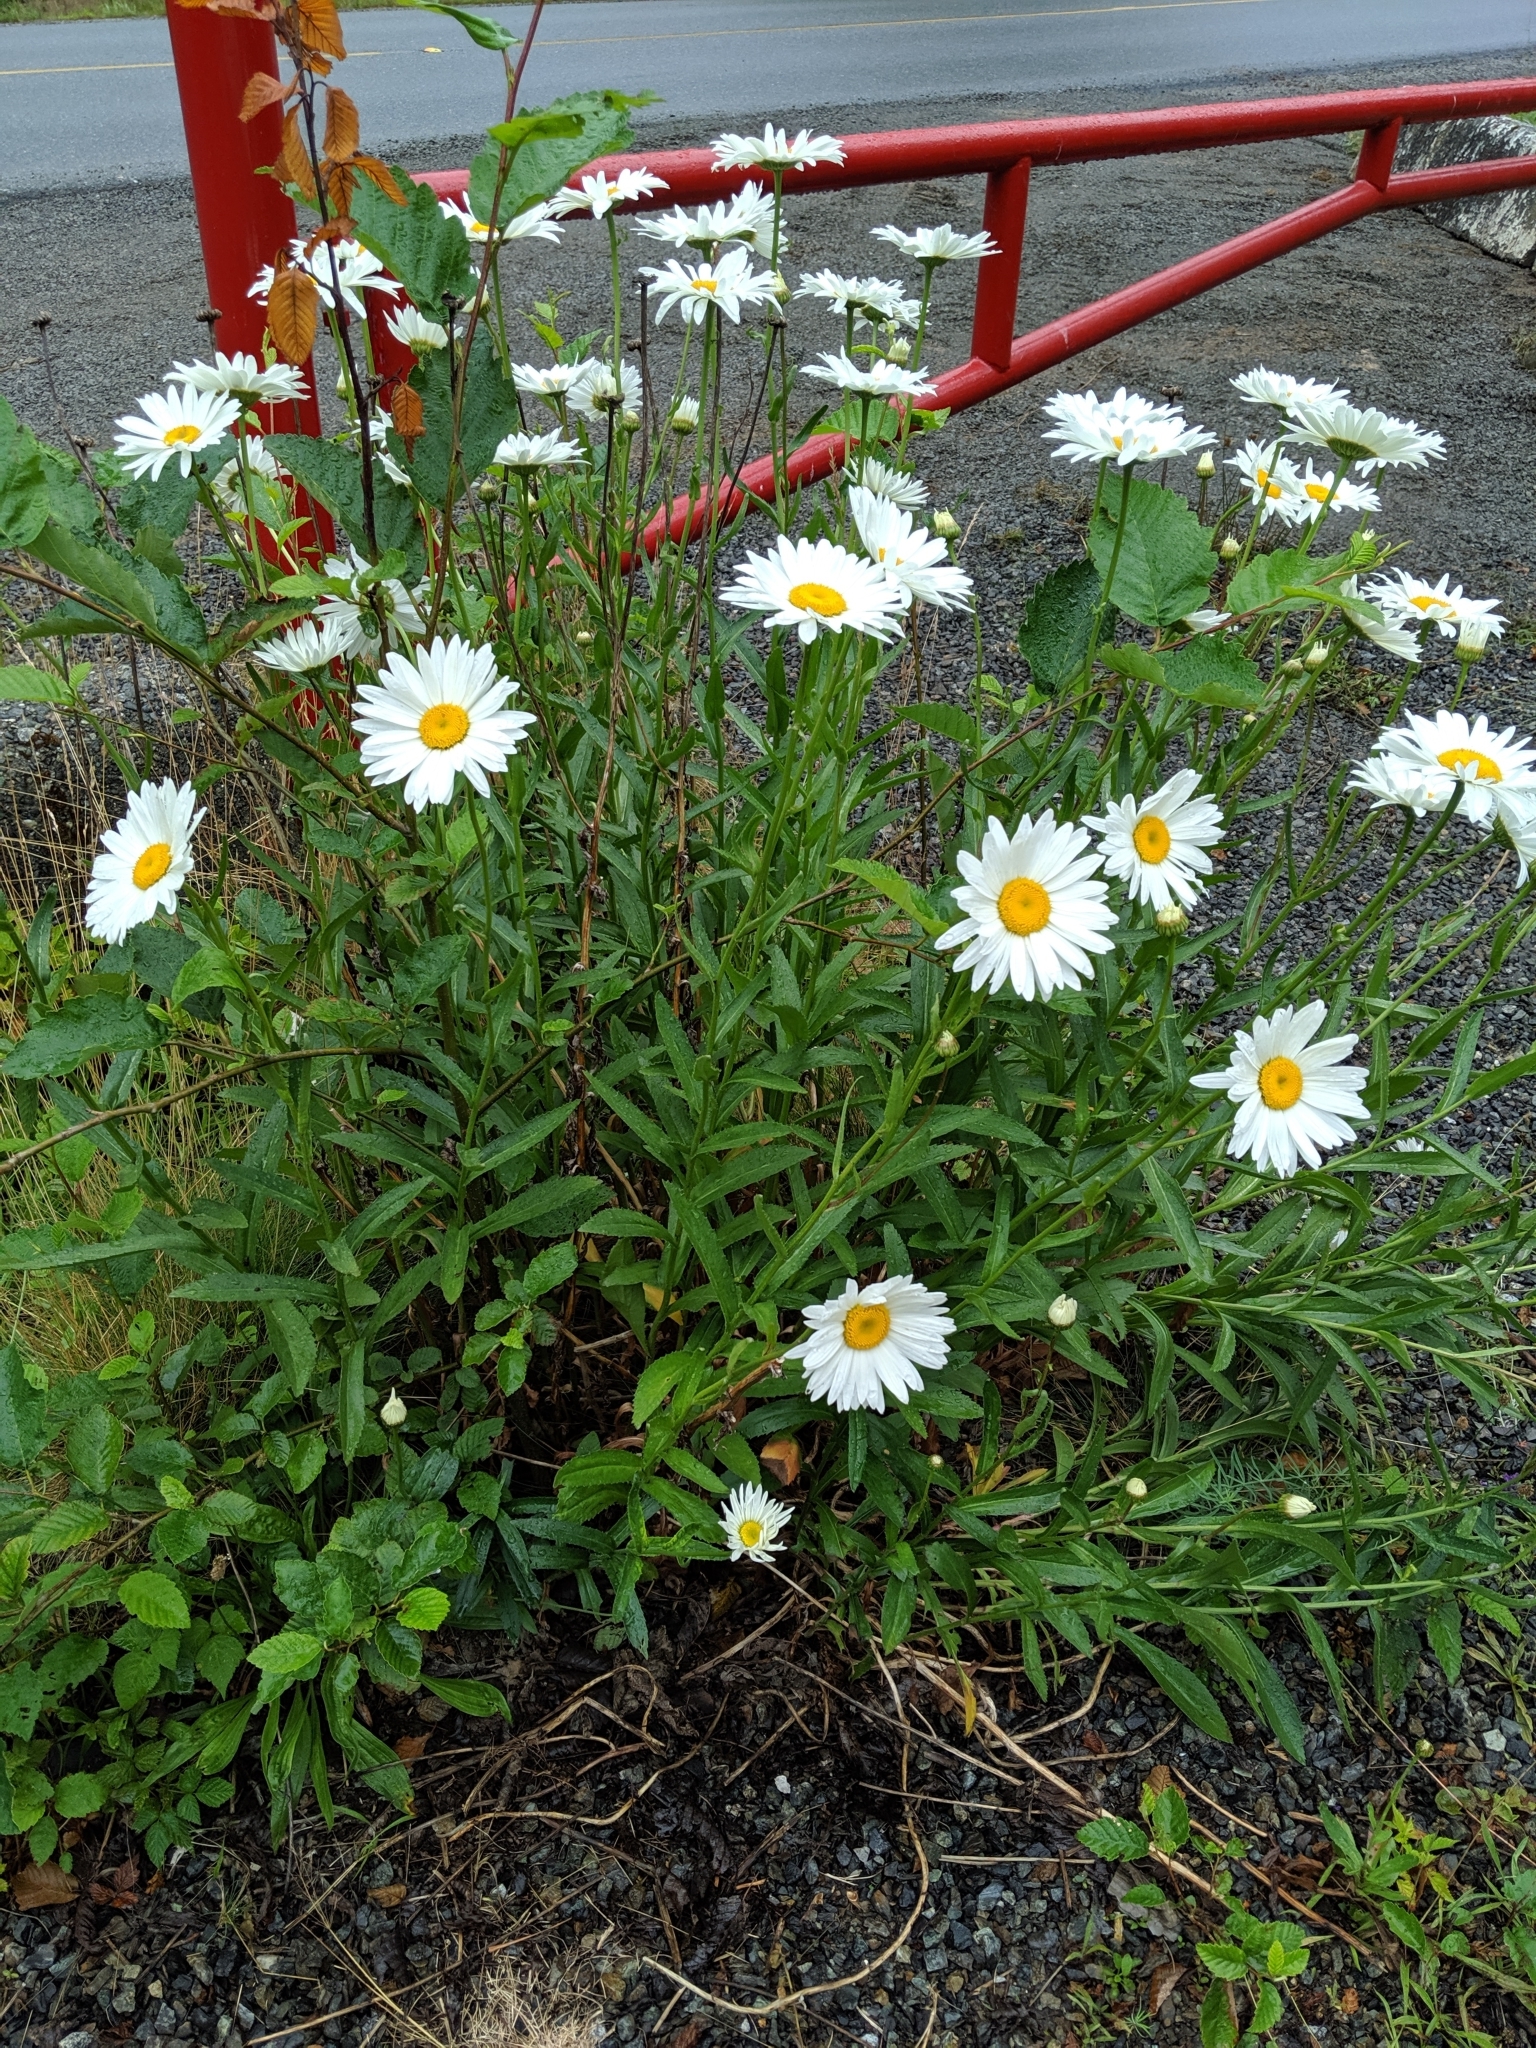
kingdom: Plantae
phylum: Tracheophyta
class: Magnoliopsida
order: Asterales
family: Asteraceae
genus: Leucanthemum
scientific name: Leucanthemum vulgare
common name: Oxeye daisy
